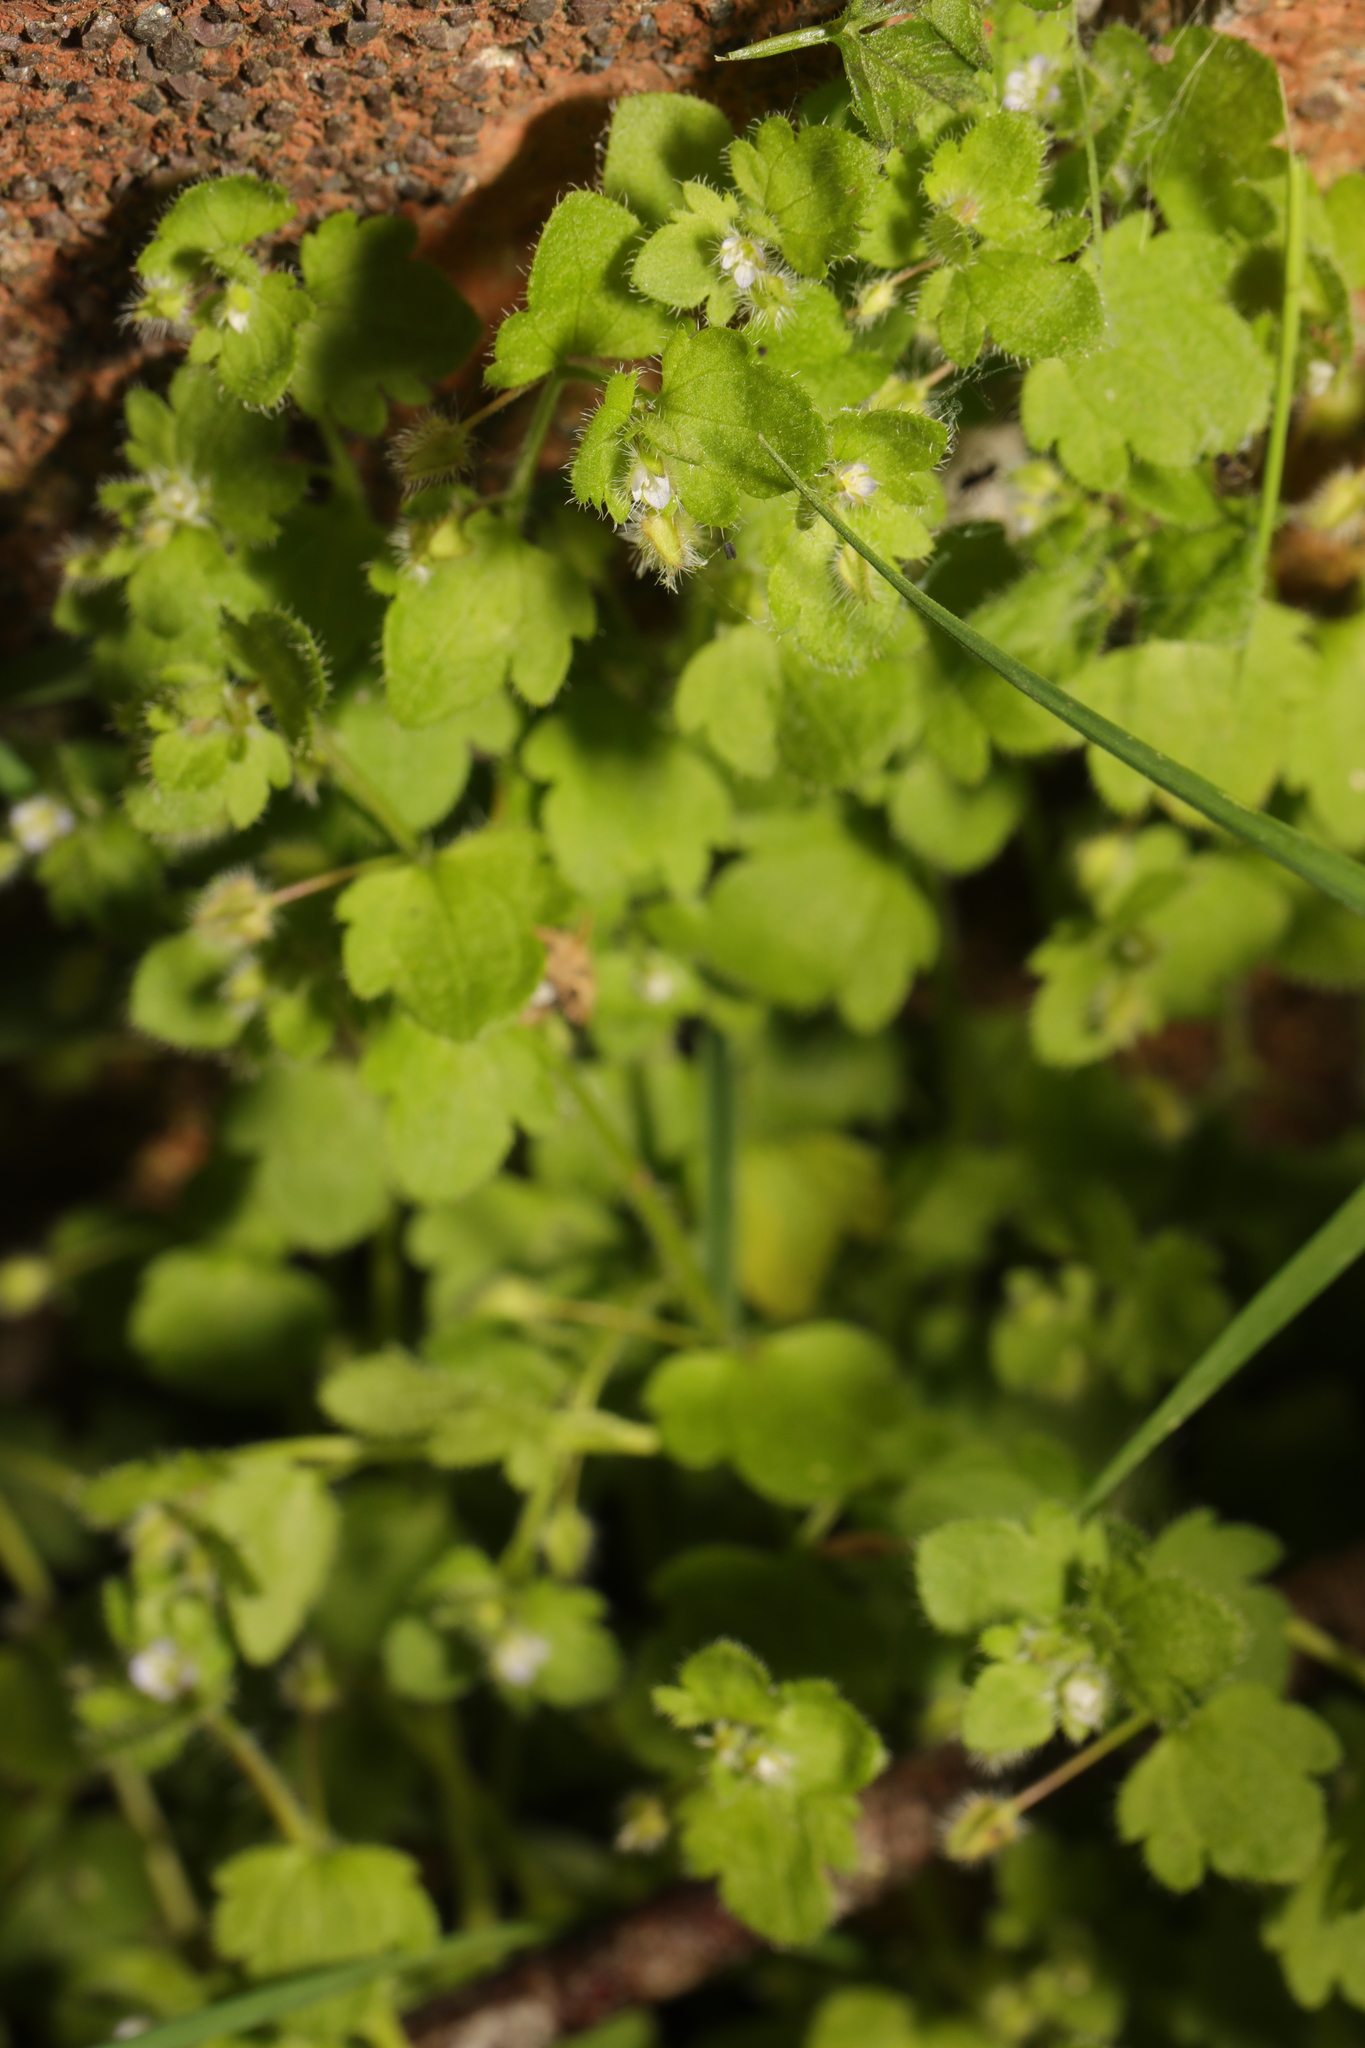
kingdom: Plantae
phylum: Tracheophyta
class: Magnoliopsida
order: Lamiales
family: Plantaginaceae
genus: Veronica
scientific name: Veronica hederifolia
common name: Ivy-leaved speedwell
